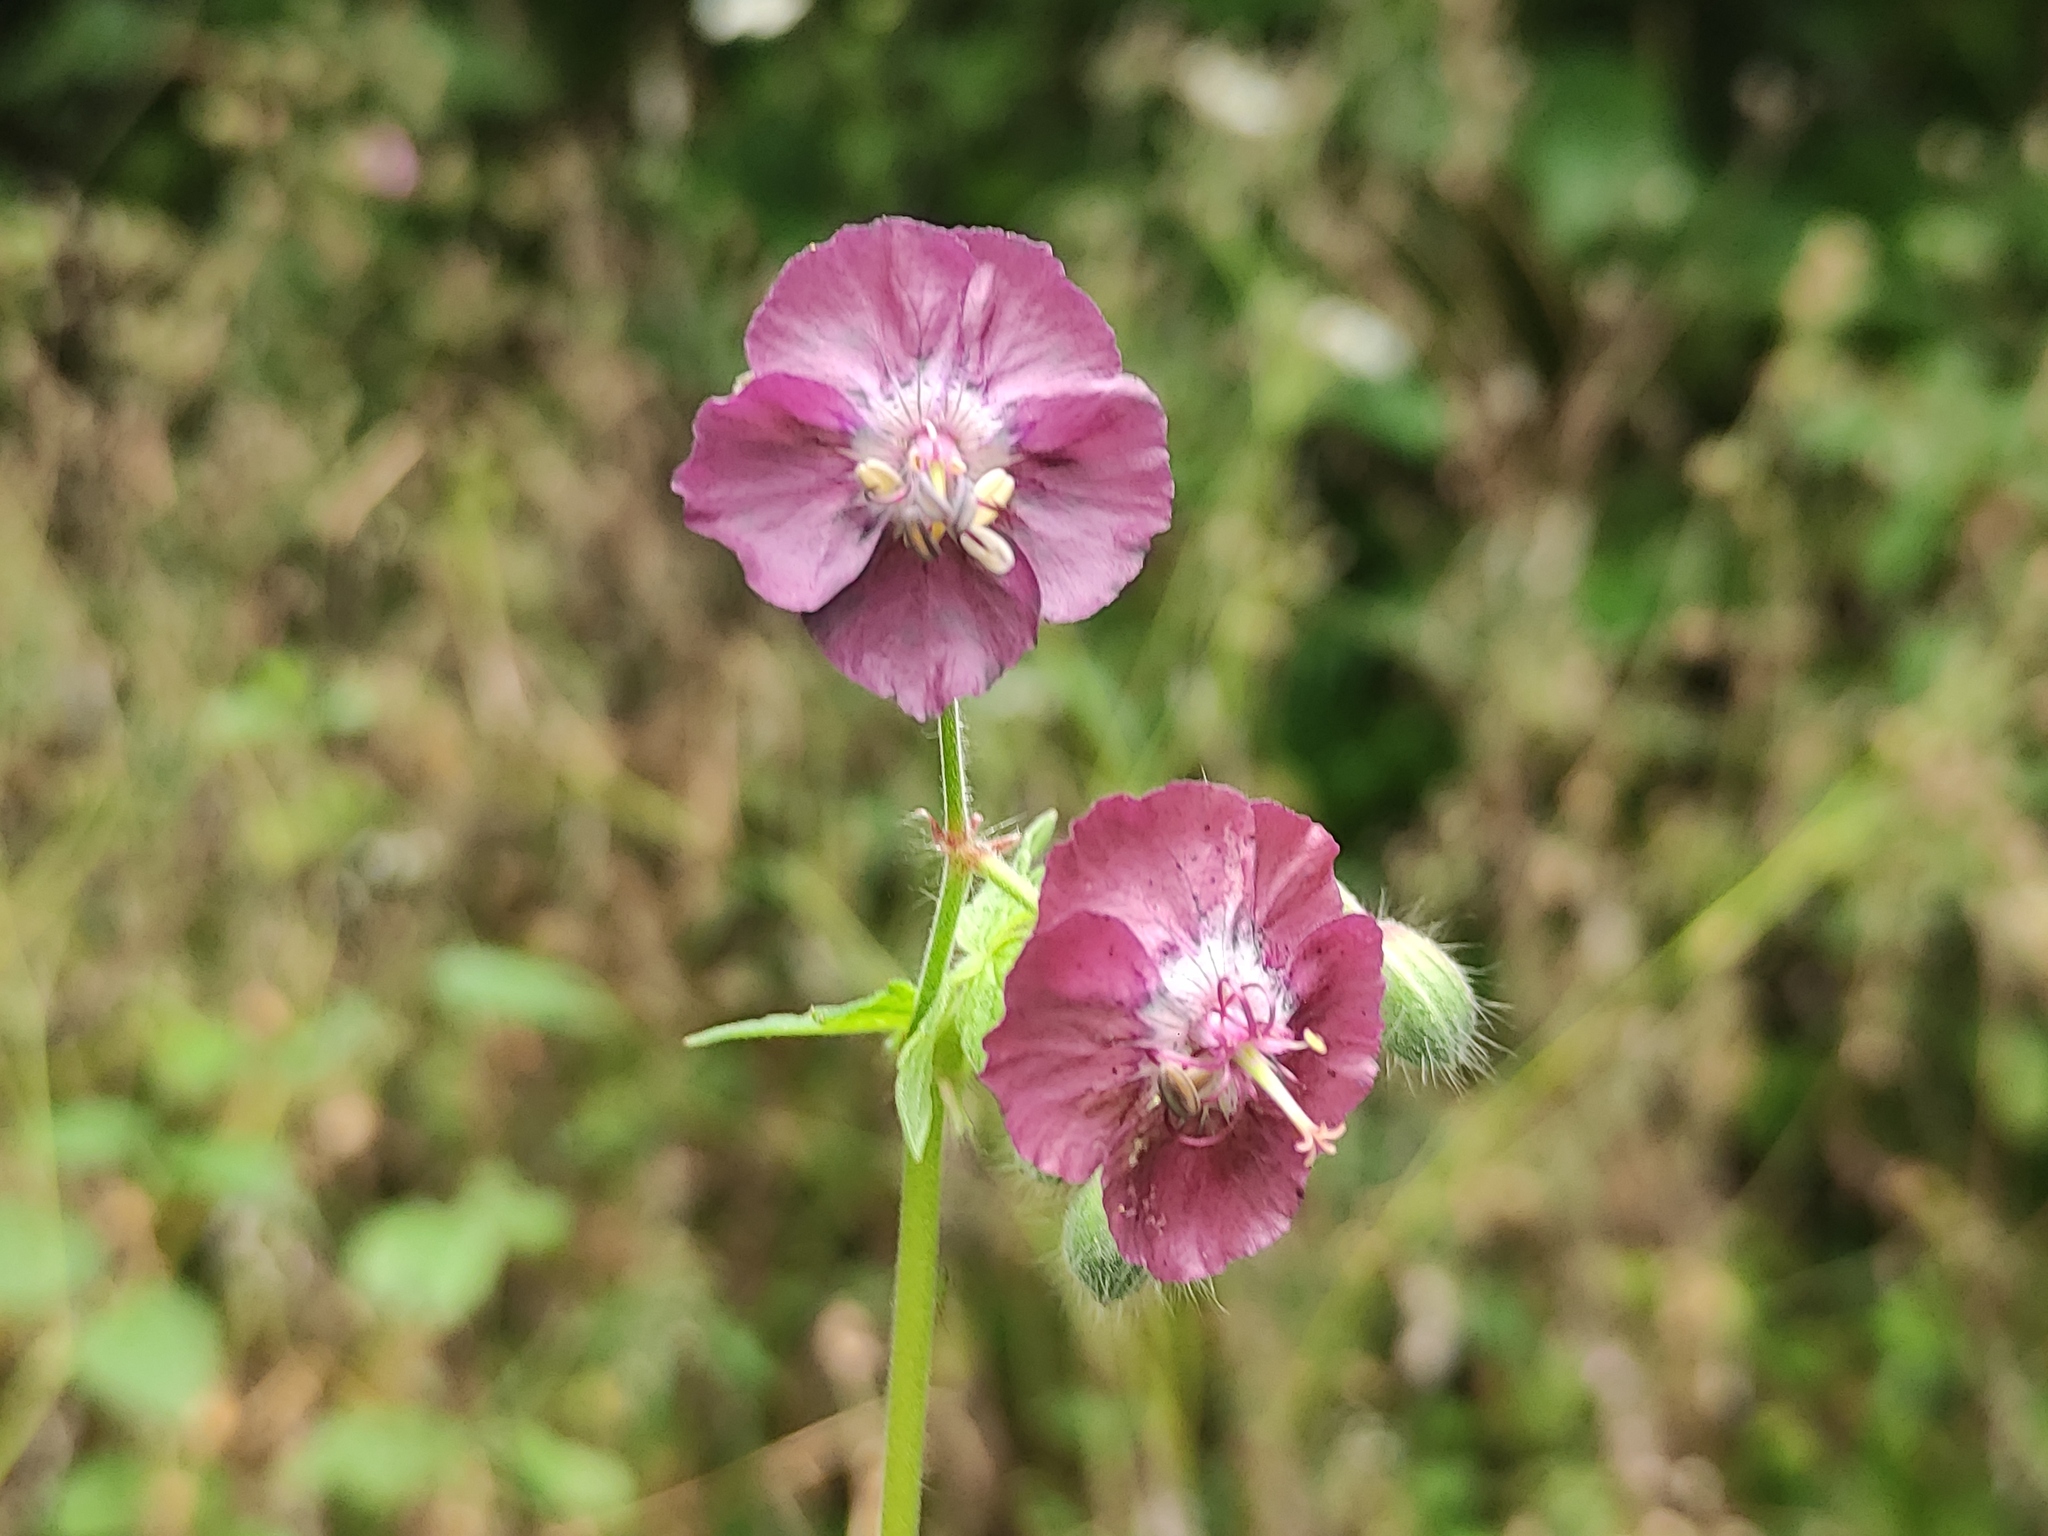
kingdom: Plantae
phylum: Tracheophyta
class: Magnoliopsida
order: Geraniales
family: Geraniaceae
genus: Geranium
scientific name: Geranium phaeum
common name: Dusky crane's-bill
